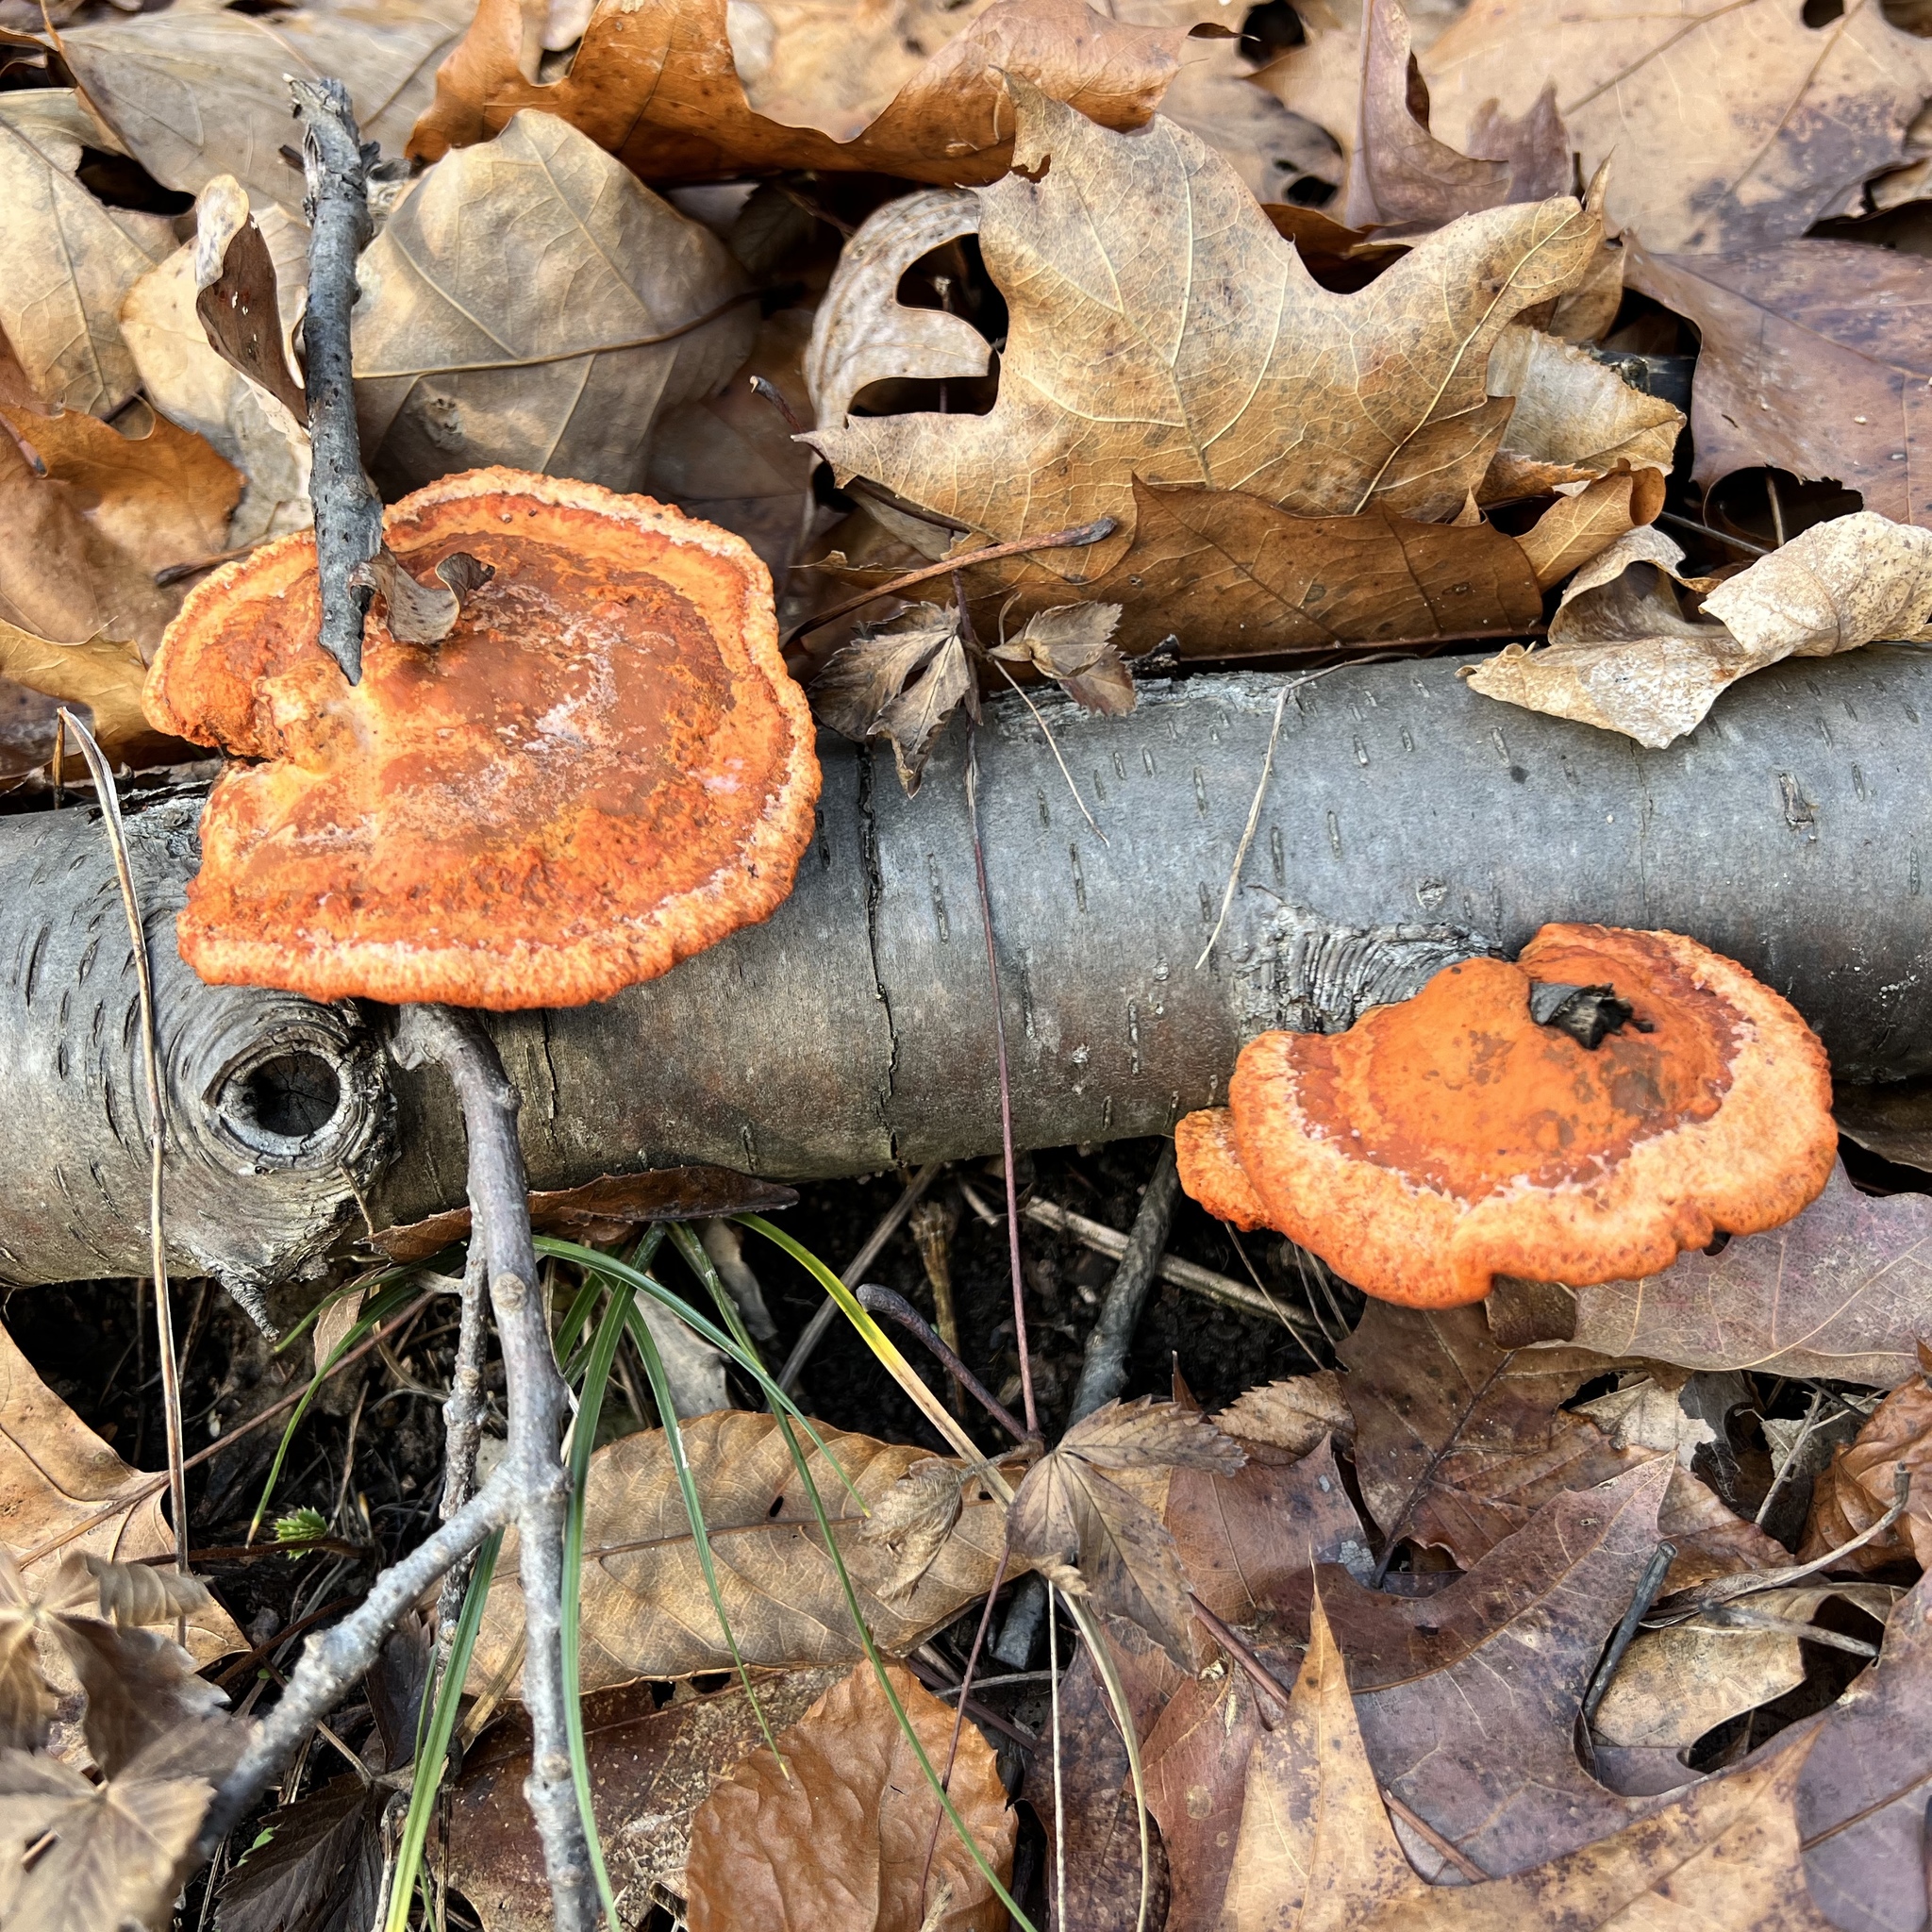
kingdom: Fungi
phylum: Basidiomycota
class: Agaricomycetes
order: Polyporales
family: Polyporaceae
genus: Trametes
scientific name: Trametes cinnabarina
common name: Northern cinnabar polypore
